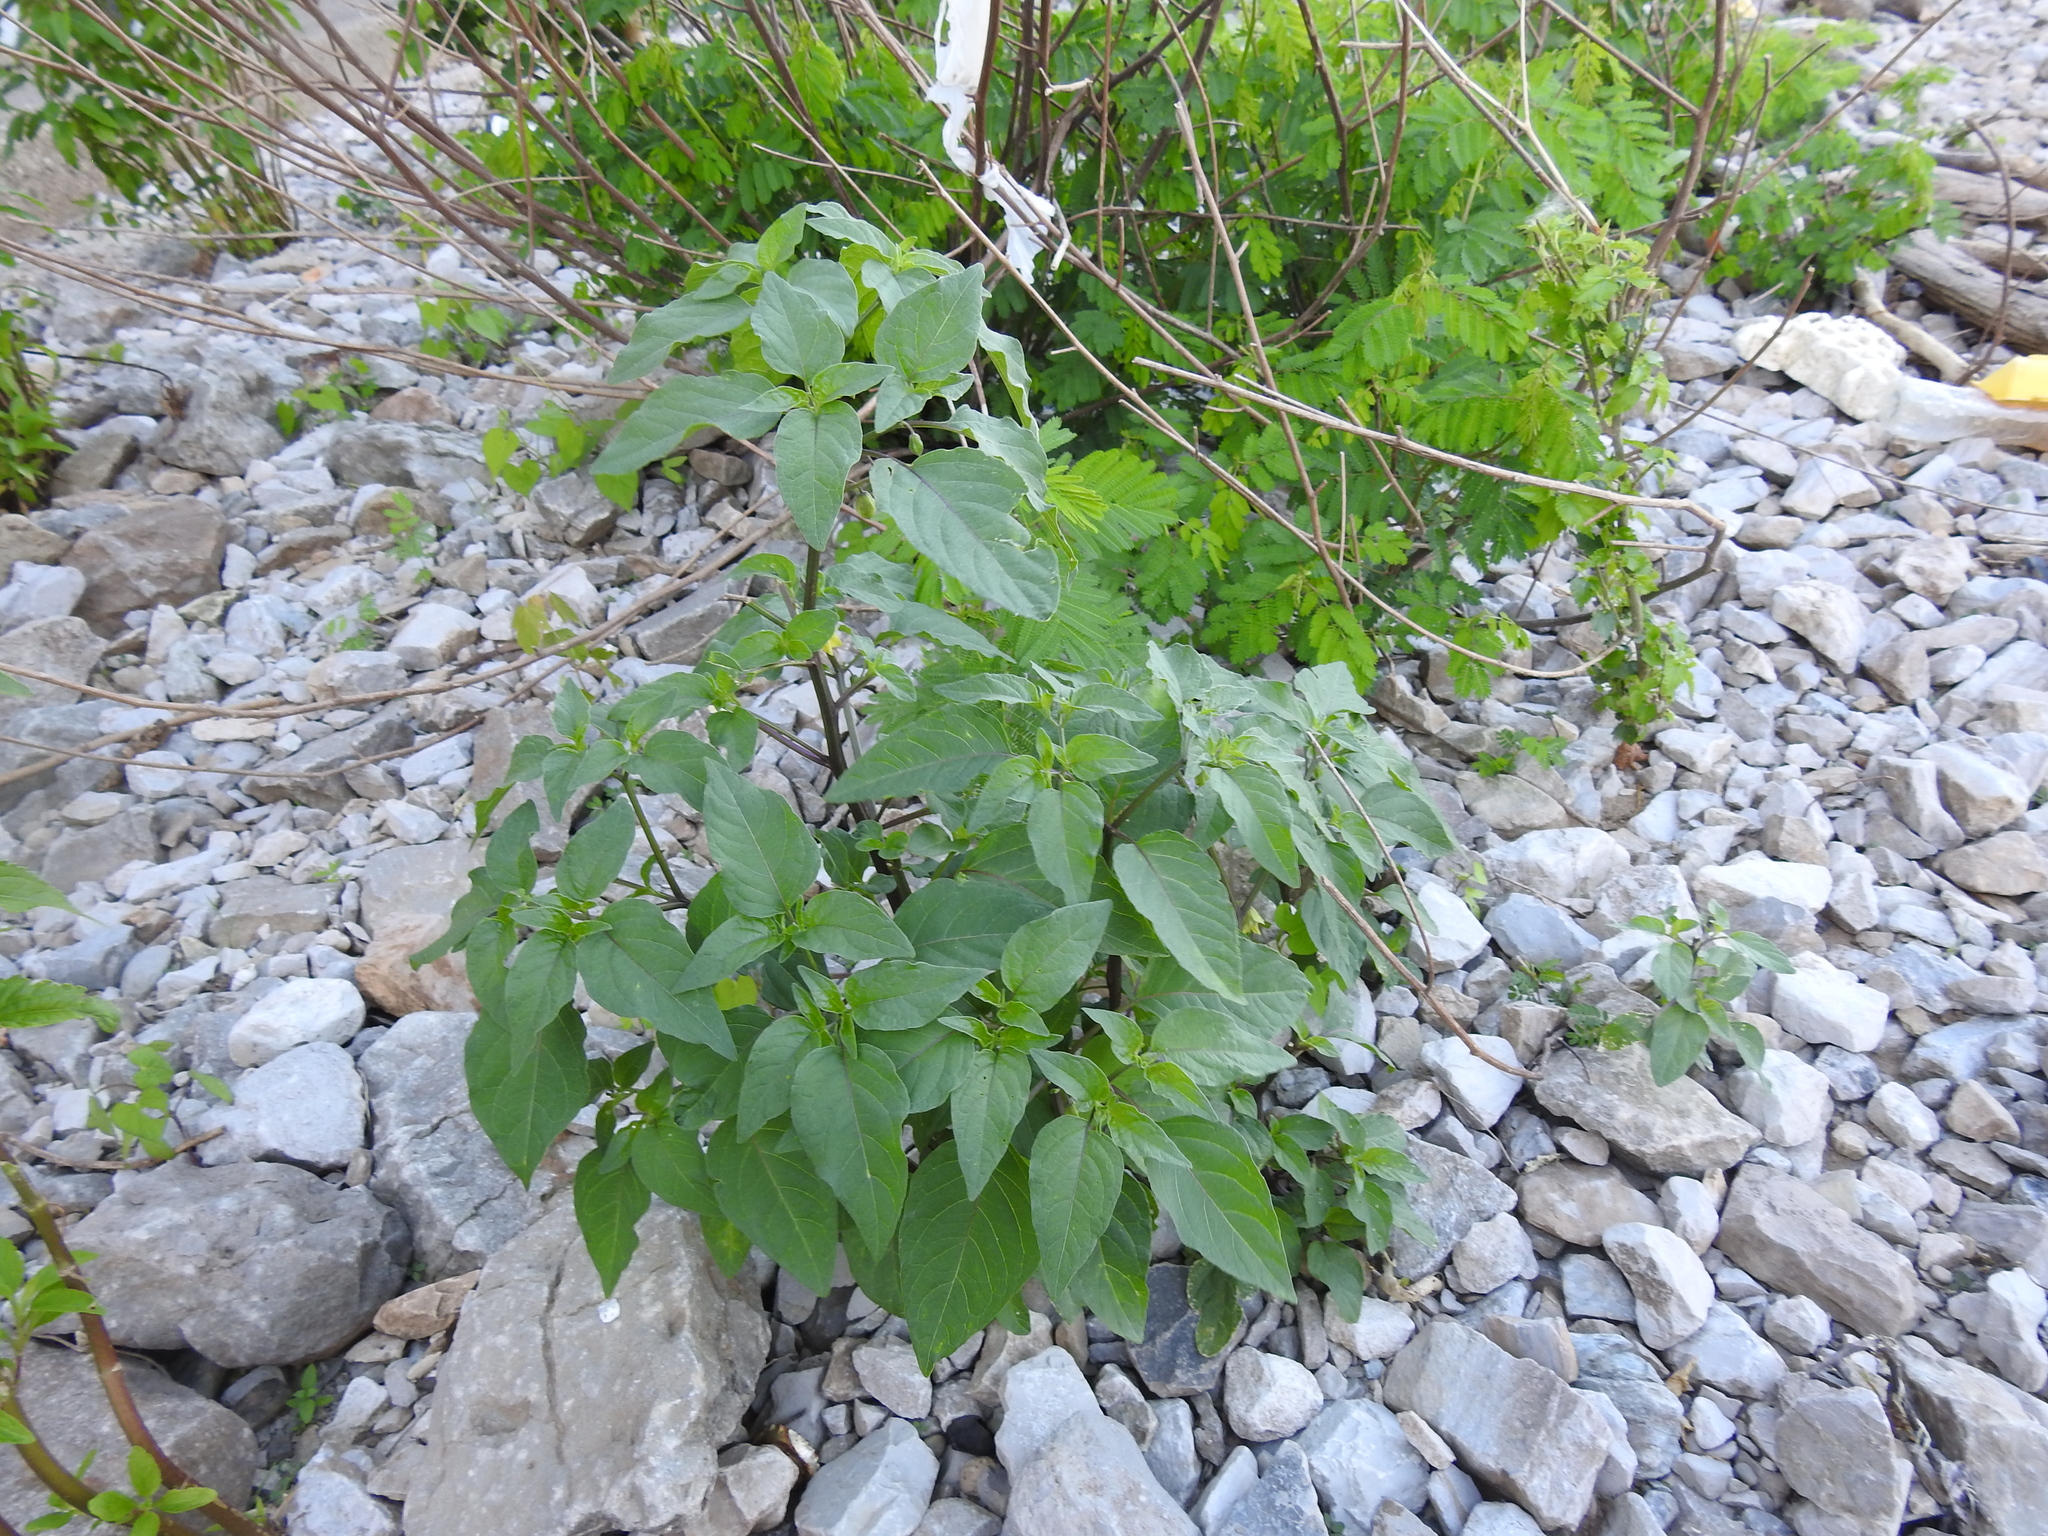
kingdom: Plantae
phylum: Tracheophyta
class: Magnoliopsida
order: Solanales
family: Solanaceae
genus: Physalis
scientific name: Physalis longifolia
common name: Common ground-cherry
